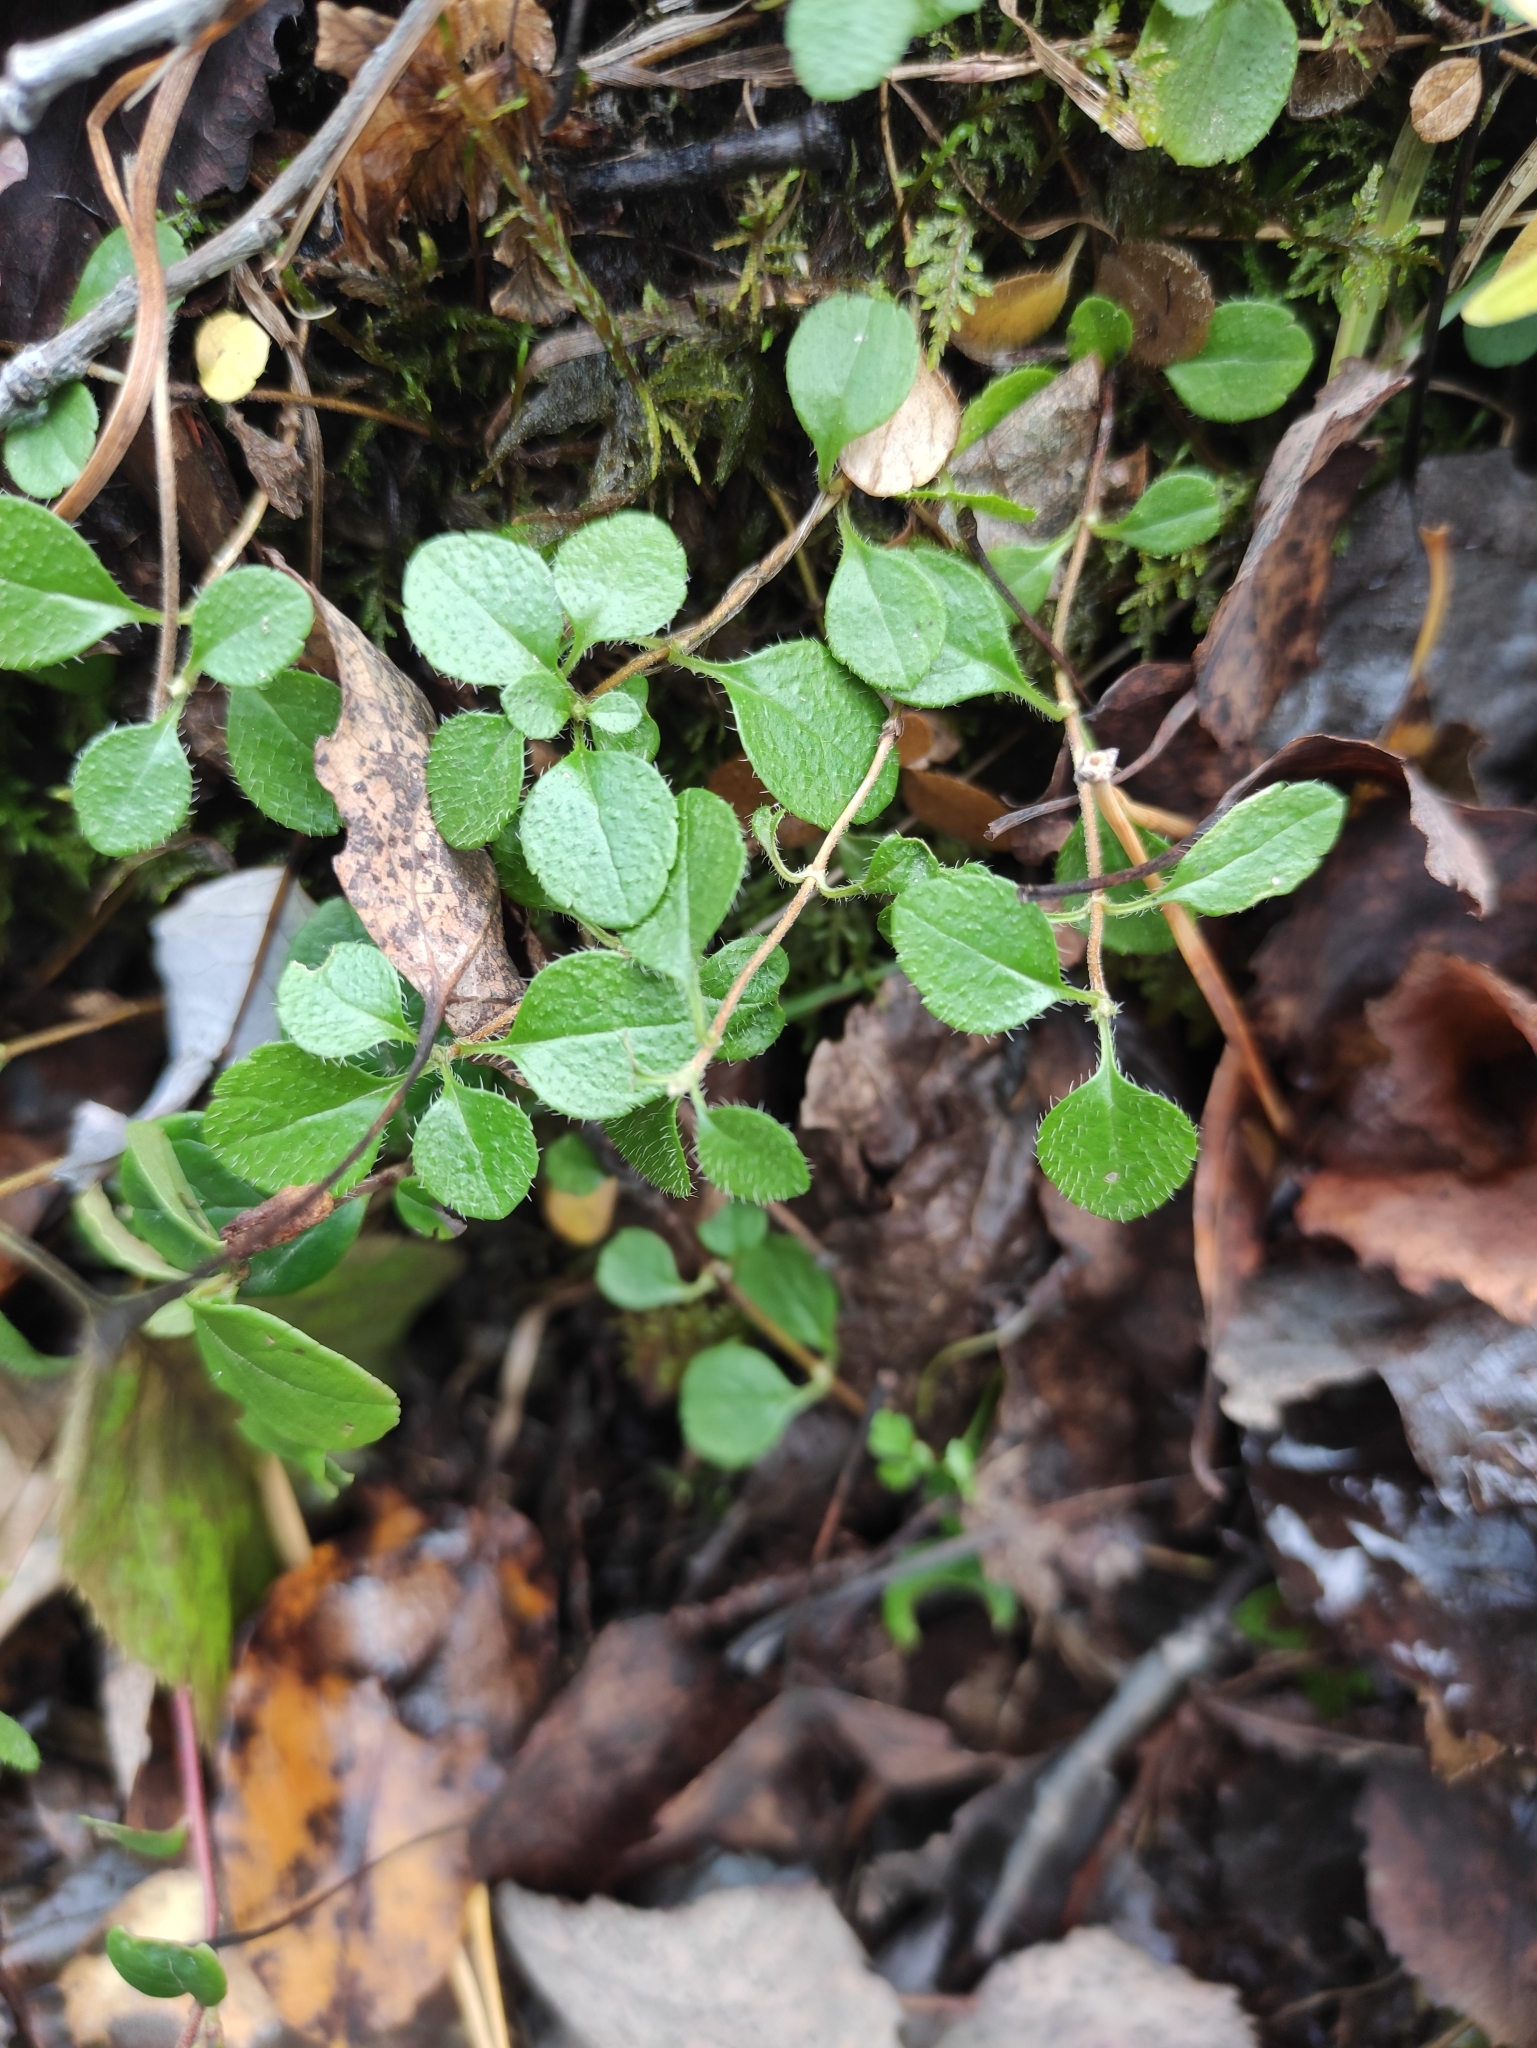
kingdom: Plantae
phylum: Tracheophyta
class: Magnoliopsida
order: Dipsacales
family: Caprifoliaceae
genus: Linnaea
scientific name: Linnaea borealis
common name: Twinflower
